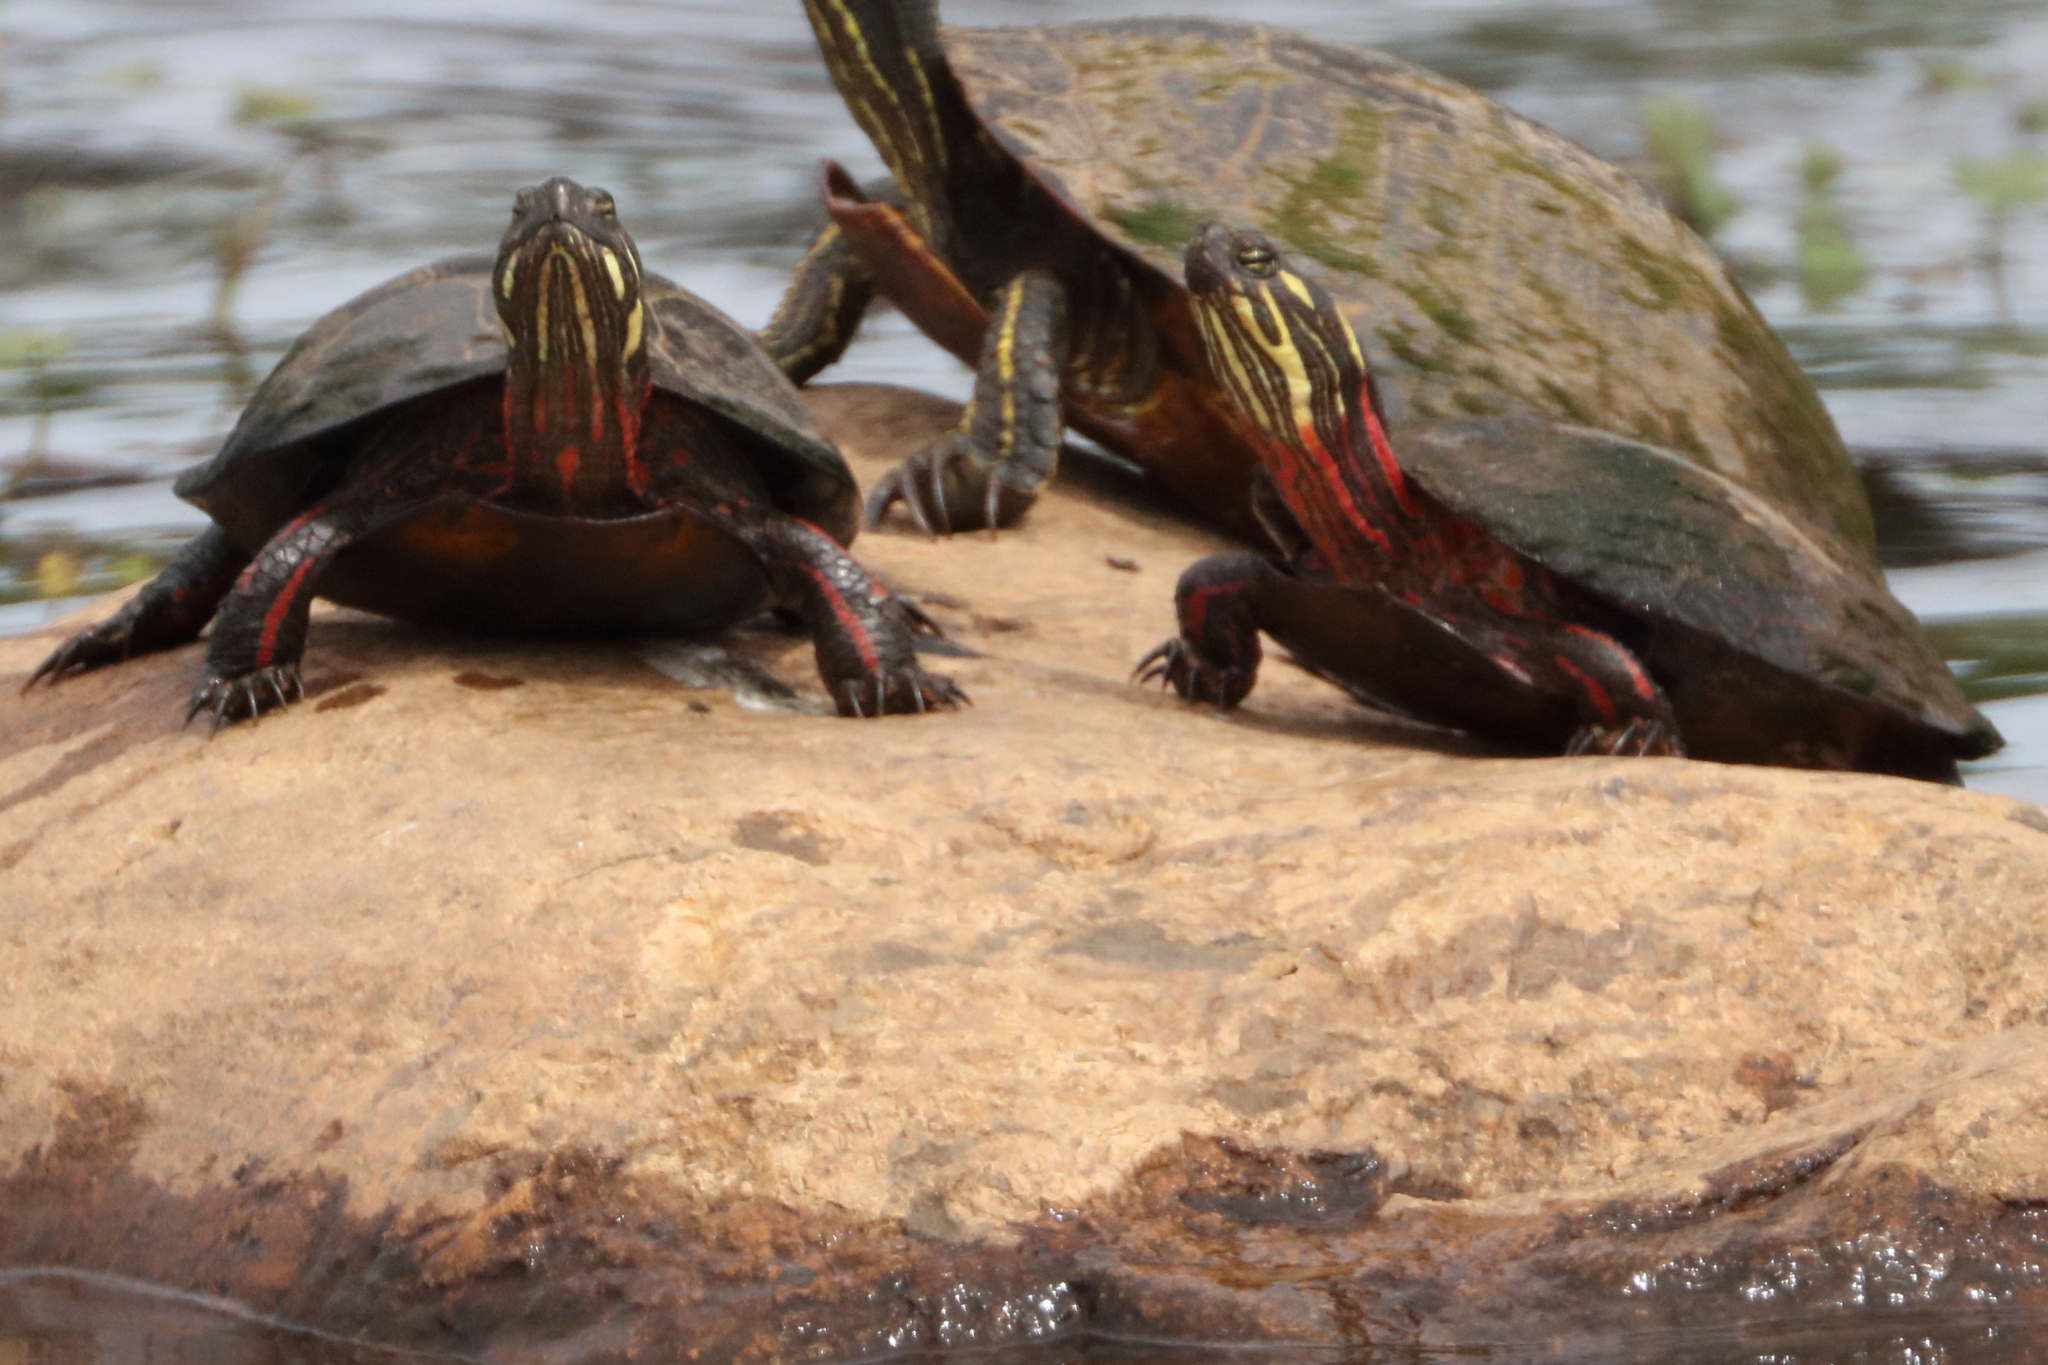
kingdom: Animalia
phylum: Chordata
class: Testudines
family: Emydidae
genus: Chrysemys
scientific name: Chrysemys picta
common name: Painted turtle
